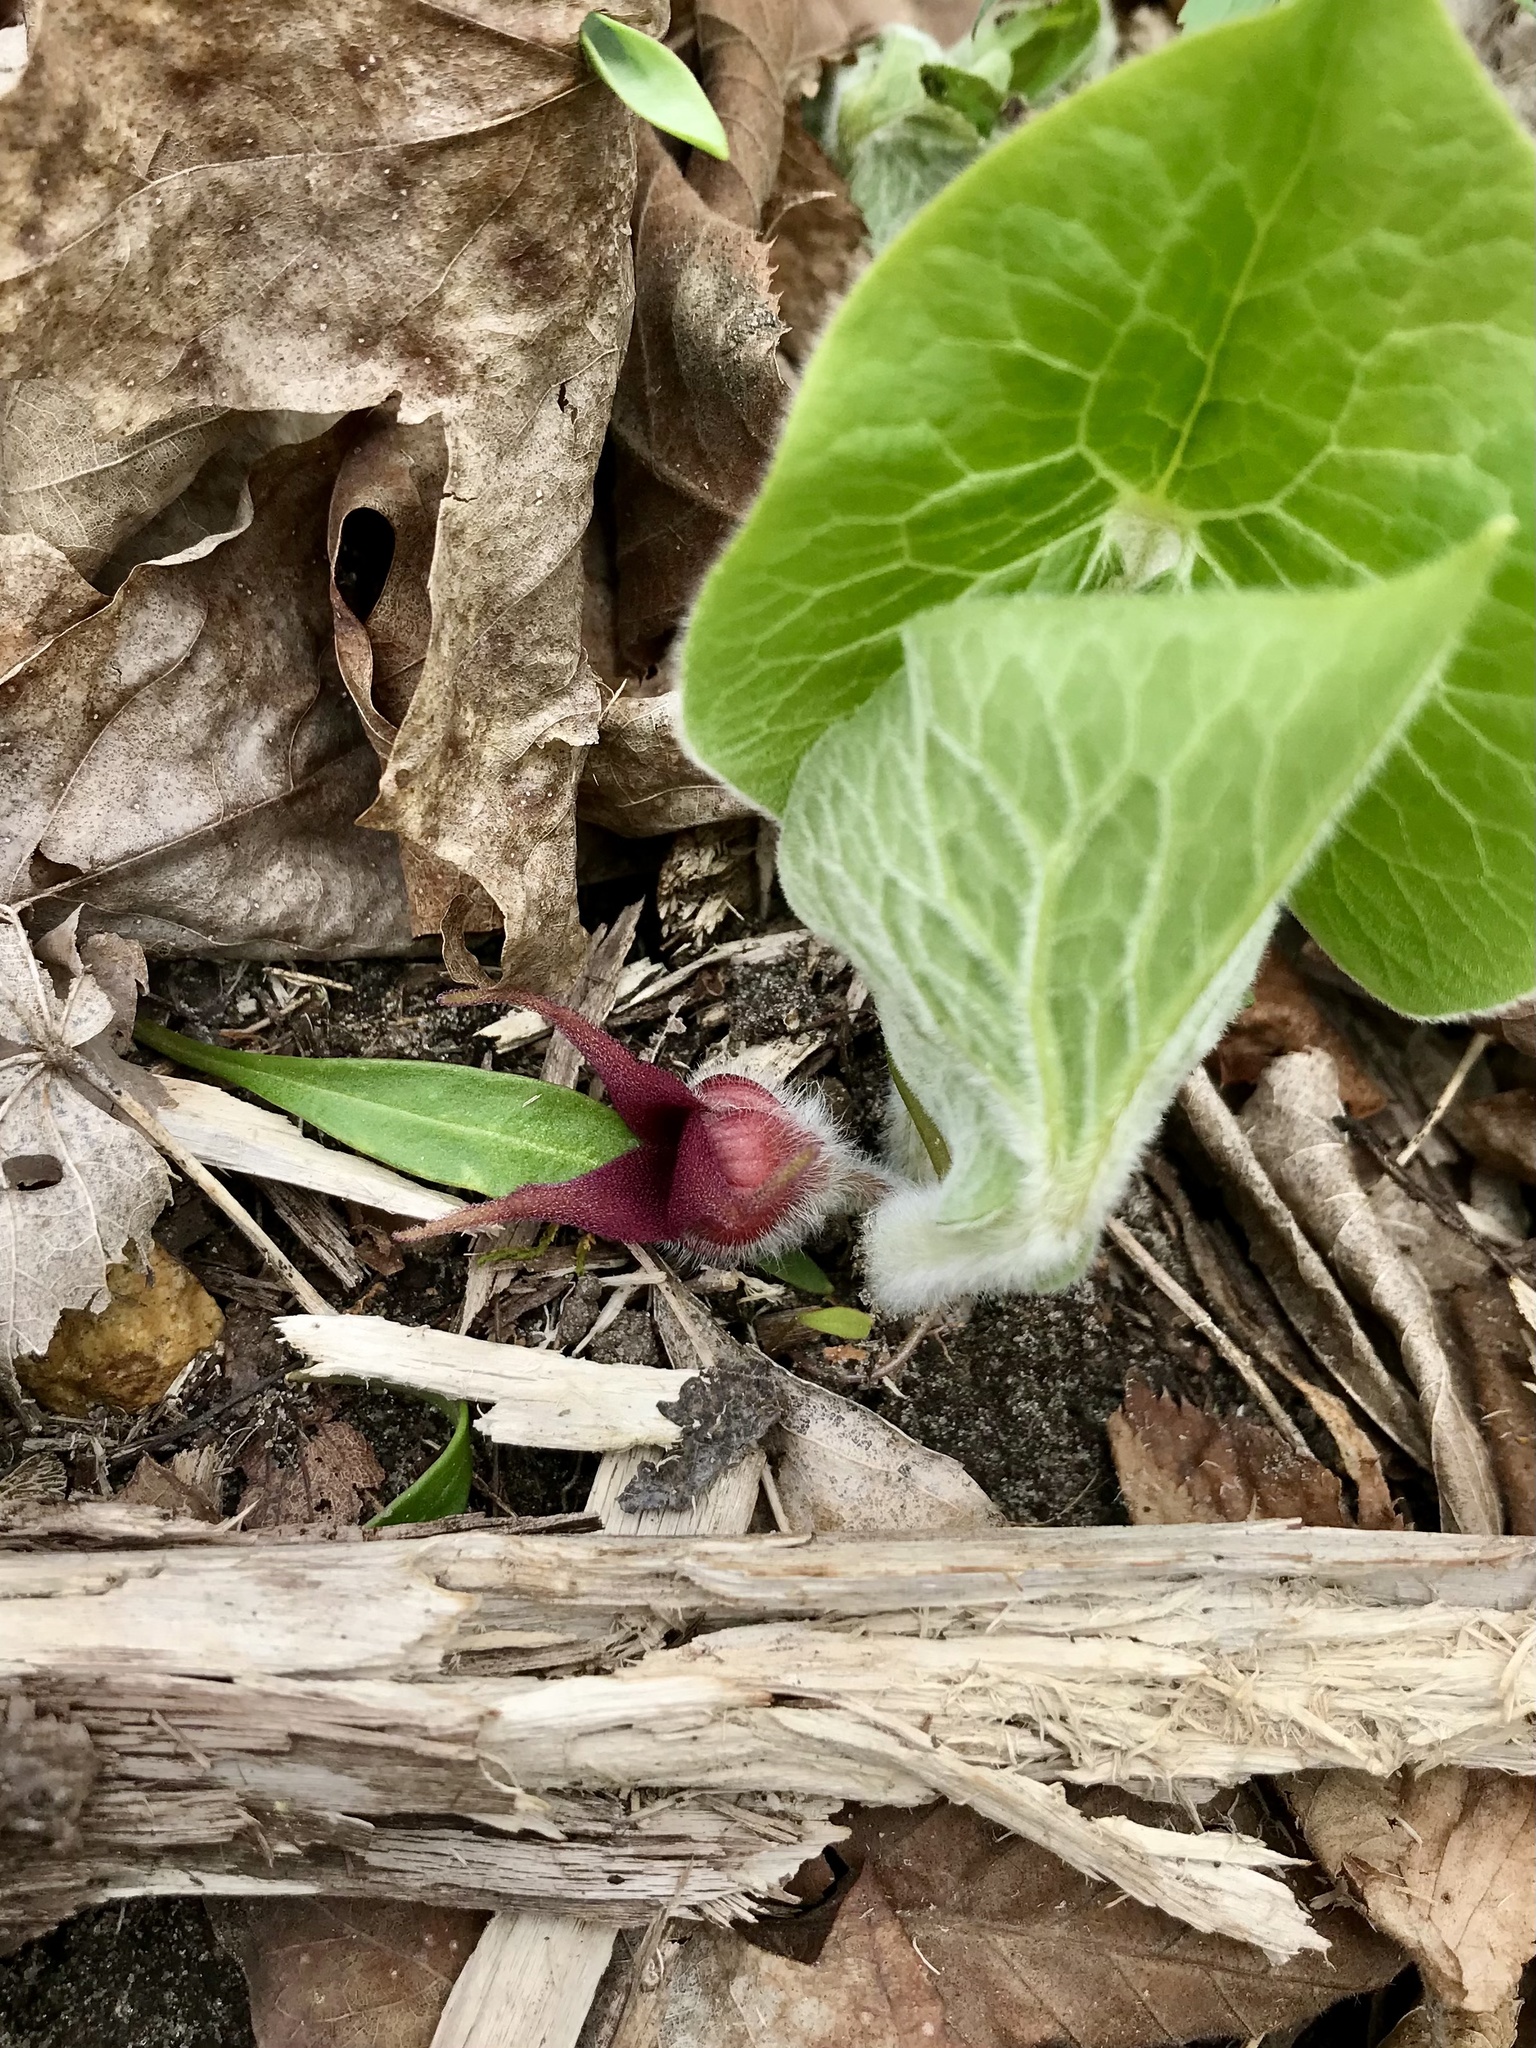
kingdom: Plantae
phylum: Tracheophyta
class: Magnoliopsida
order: Piperales
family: Aristolochiaceae
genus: Asarum
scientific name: Asarum canadense
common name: Wild ginger
